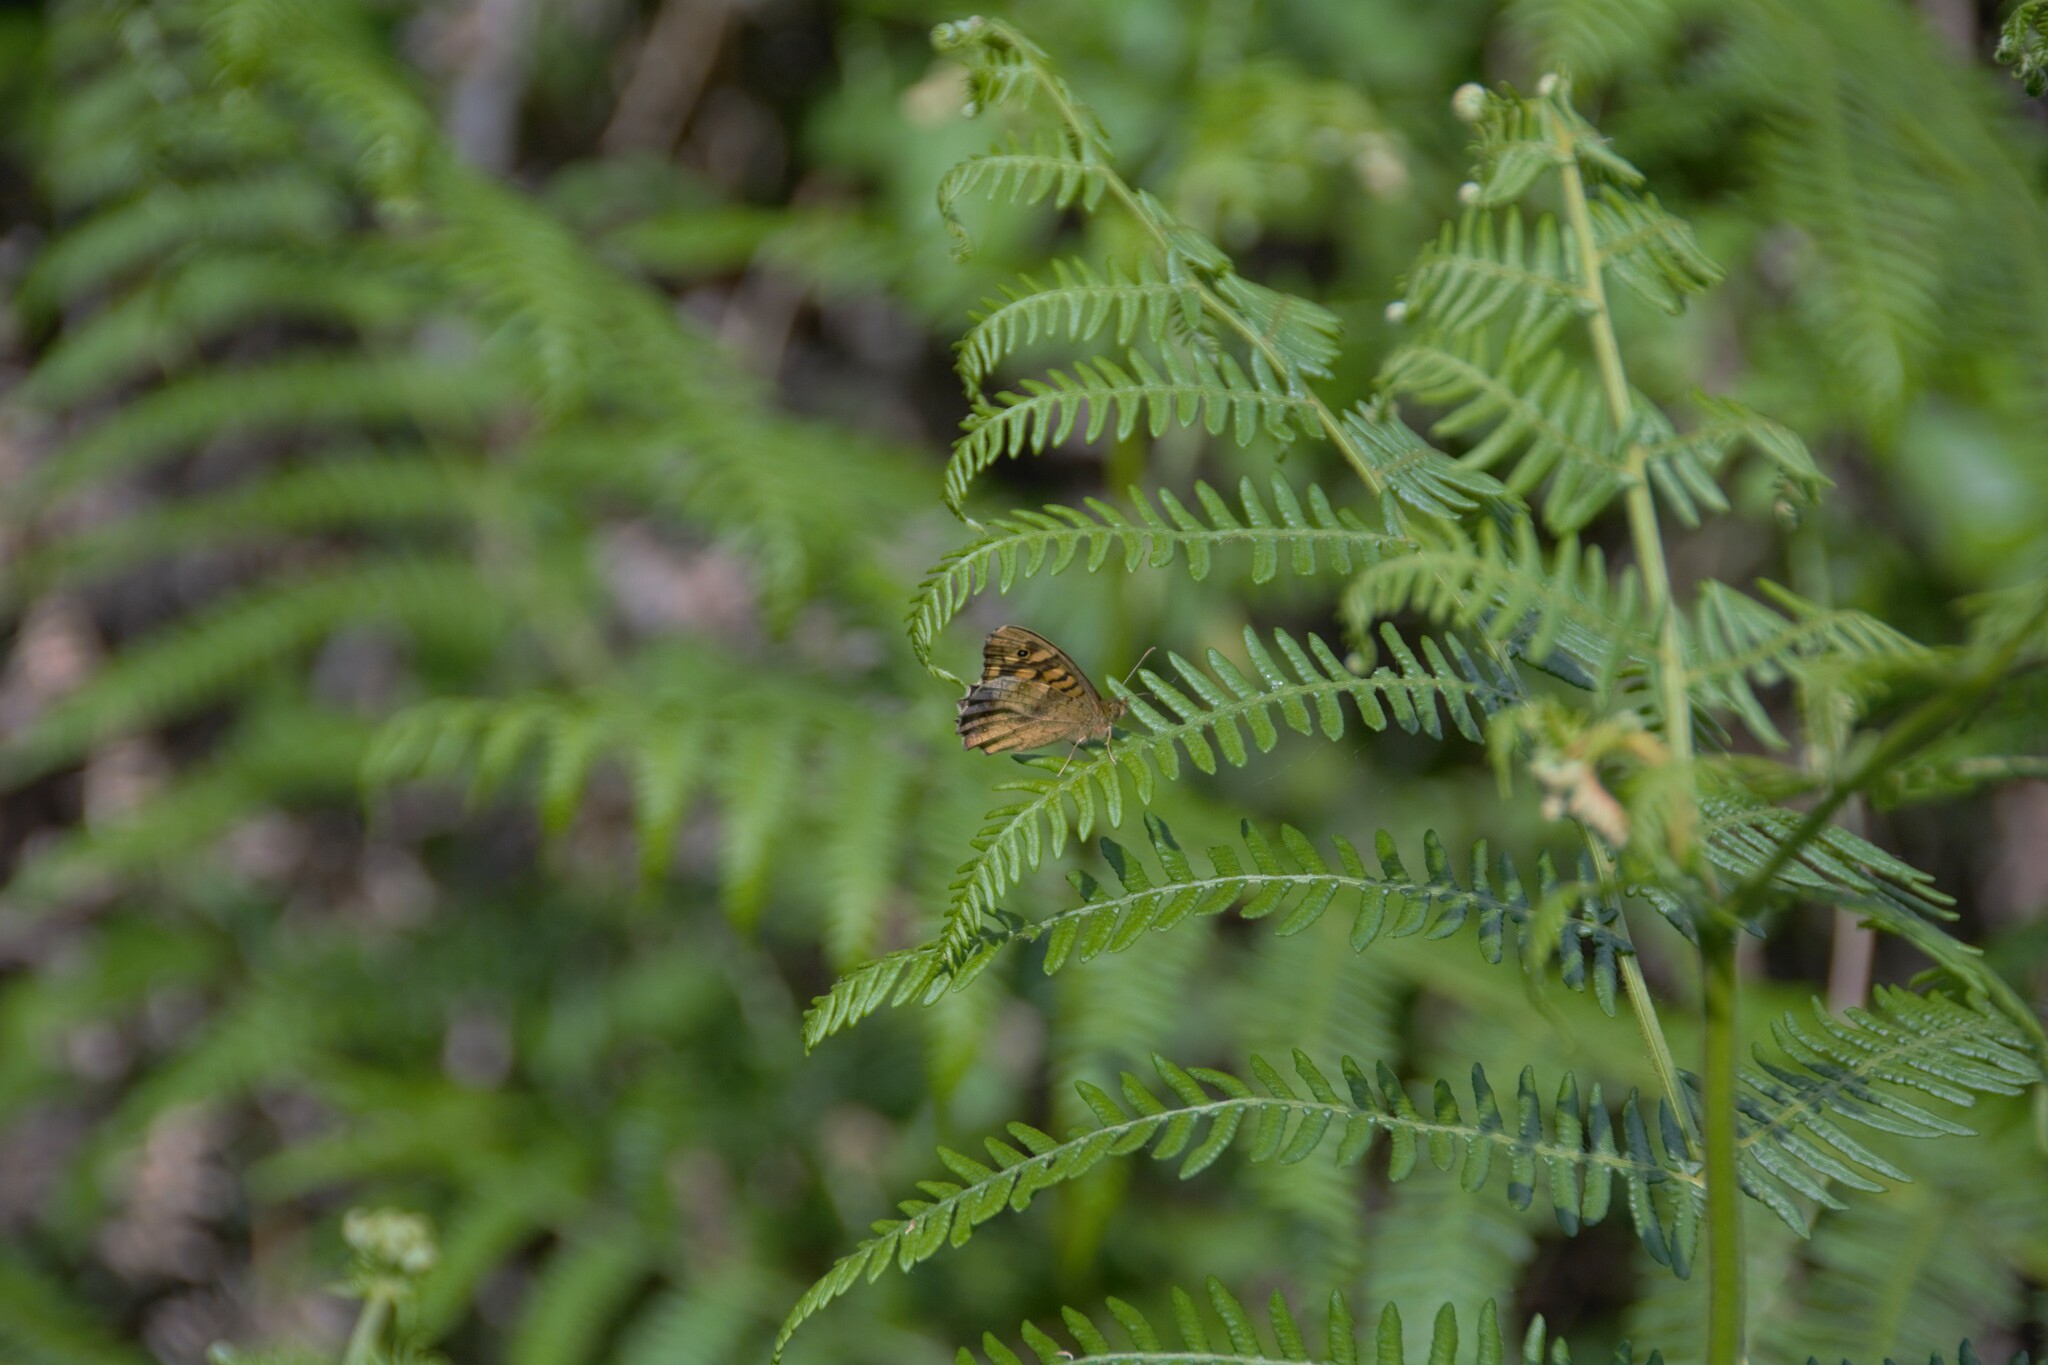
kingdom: Animalia
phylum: Arthropoda
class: Insecta
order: Lepidoptera
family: Nymphalidae
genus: Pararge
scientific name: Pararge aegeria
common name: Speckled wood
